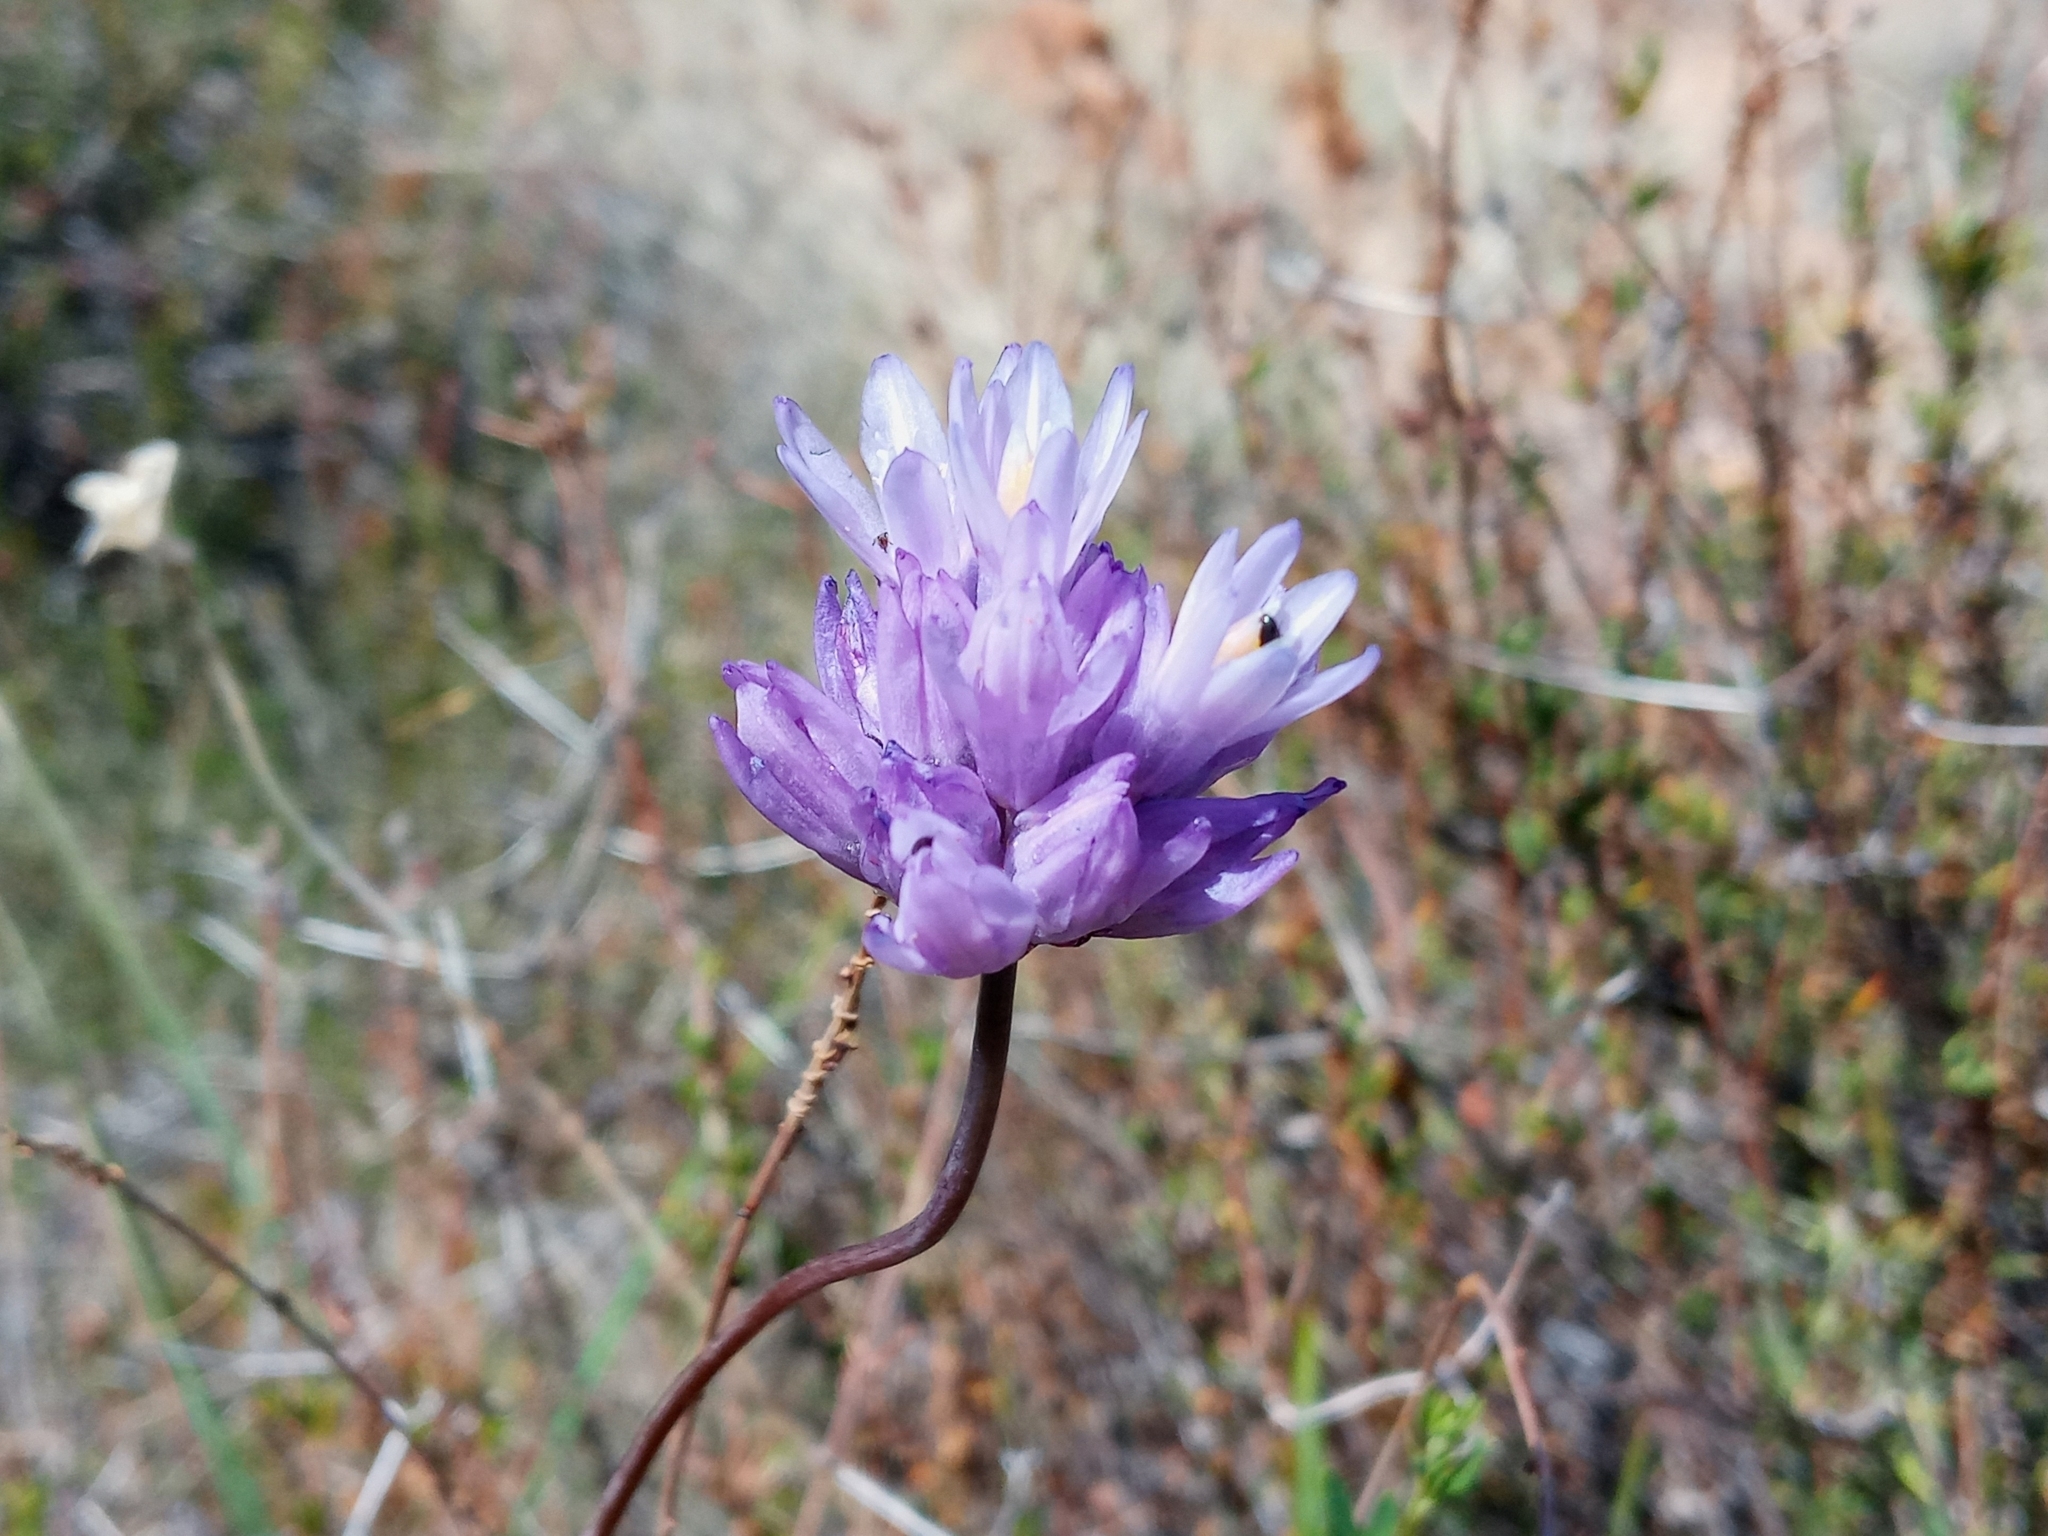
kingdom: Plantae
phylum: Tracheophyta
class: Liliopsida
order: Asparagales
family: Asparagaceae
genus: Dipterostemon
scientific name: Dipterostemon capitatus
